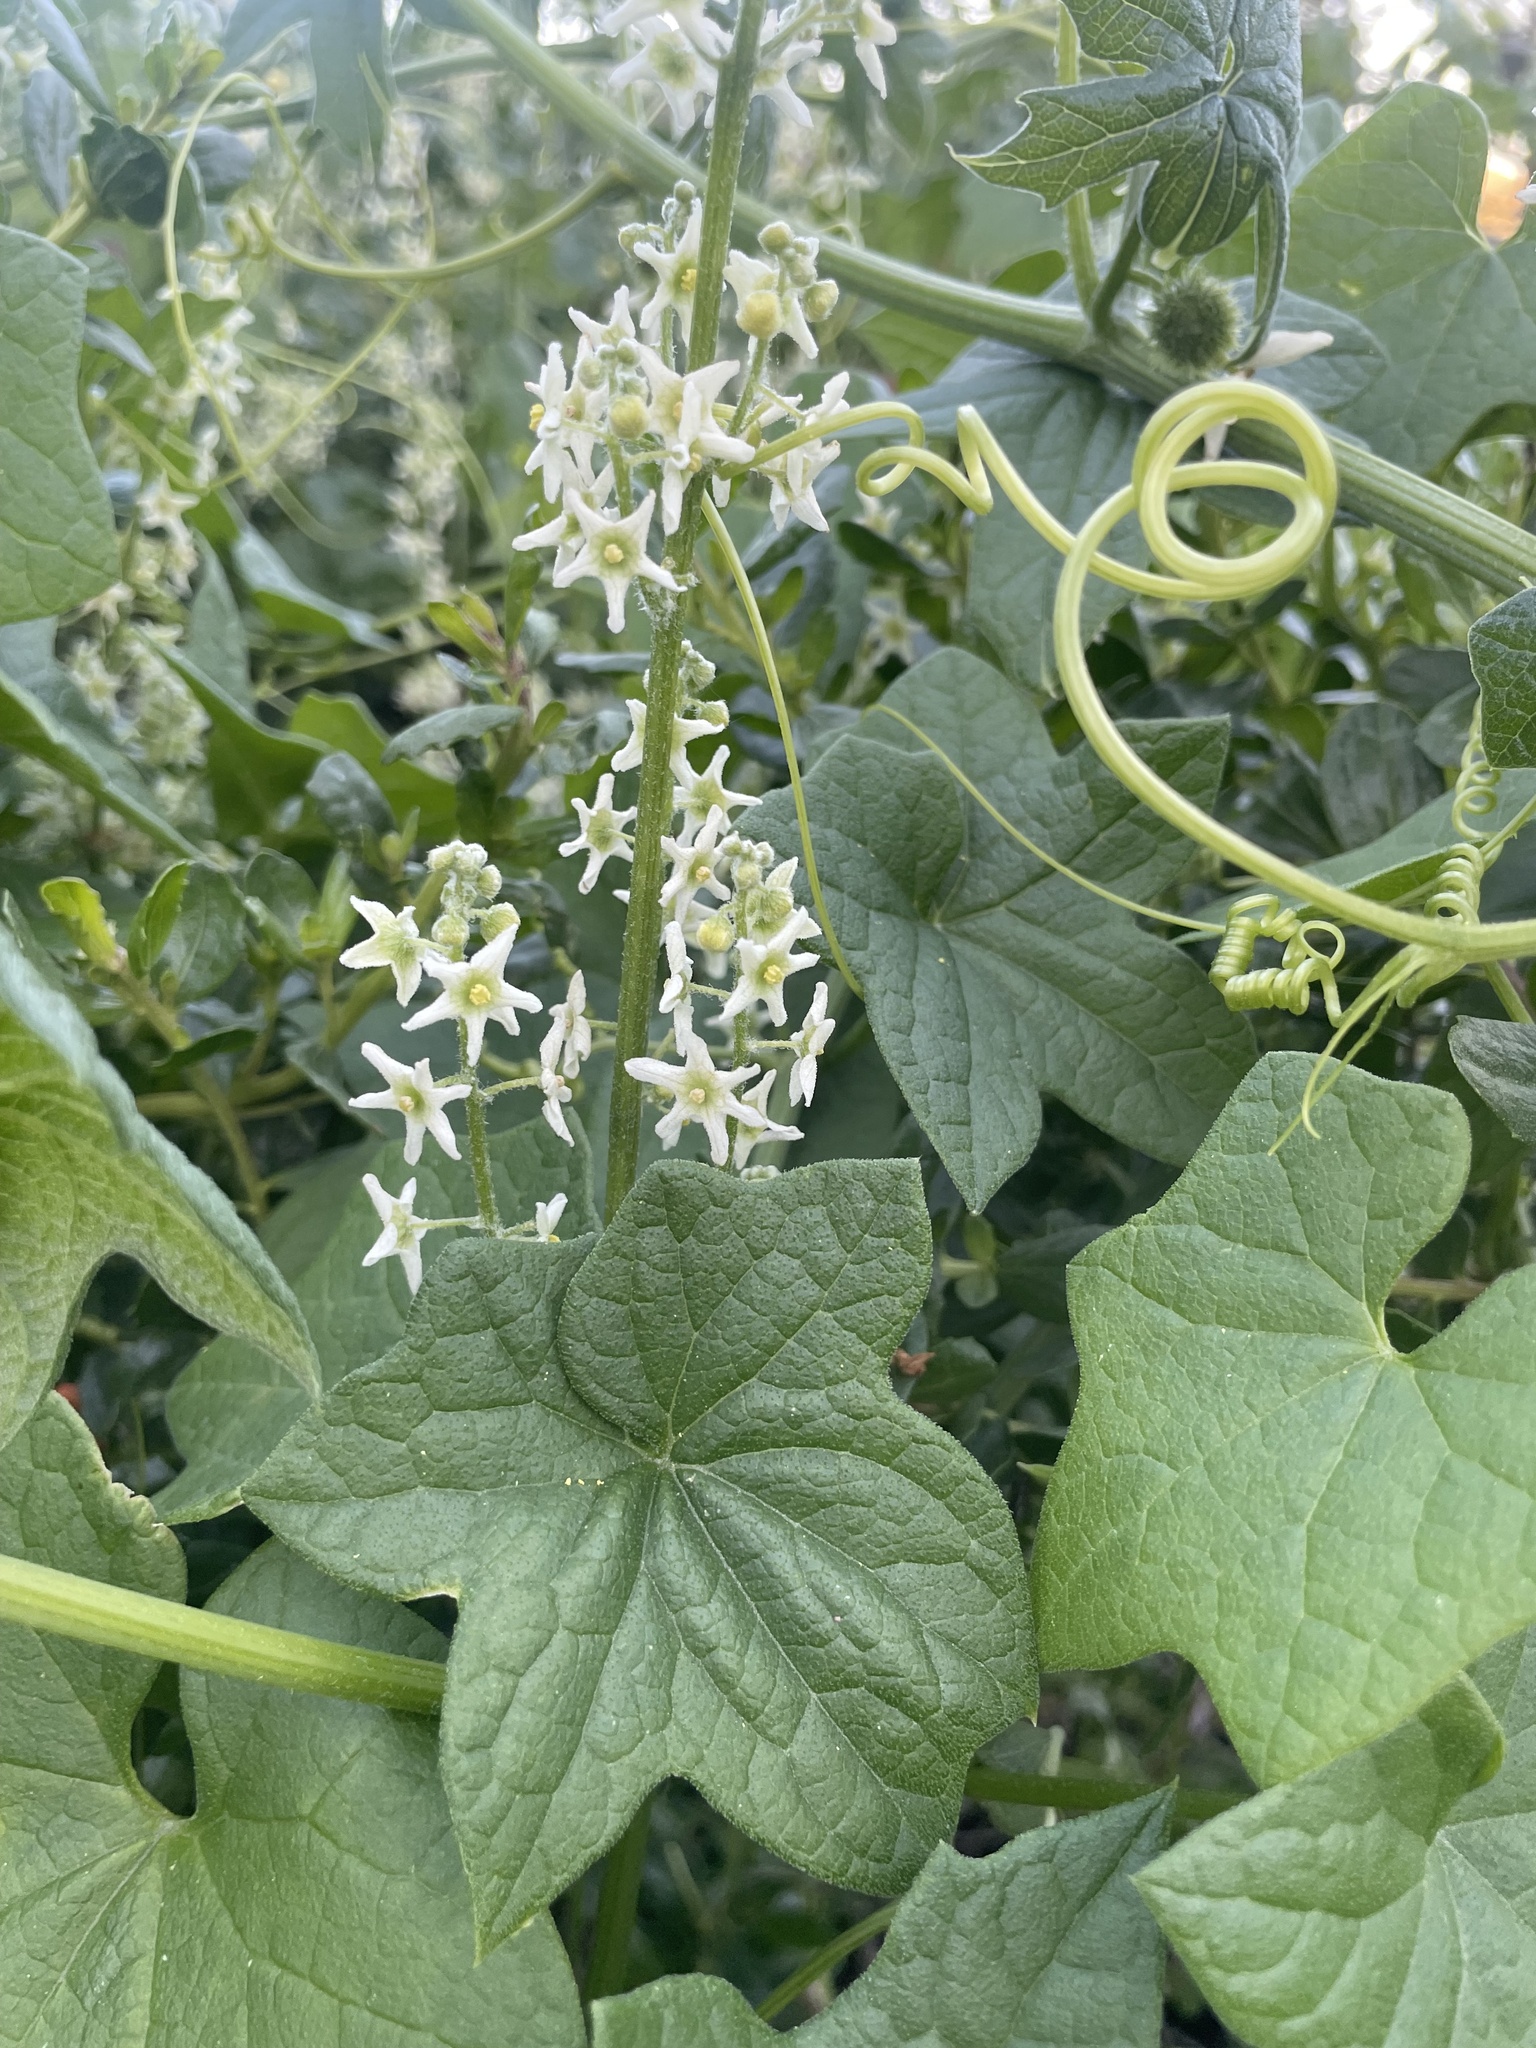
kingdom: Plantae
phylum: Tracheophyta
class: Magnoliopsida
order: Cucurbitales
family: Cucurbitaceae
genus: Marah
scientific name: Marah fabacea
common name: California manroot
